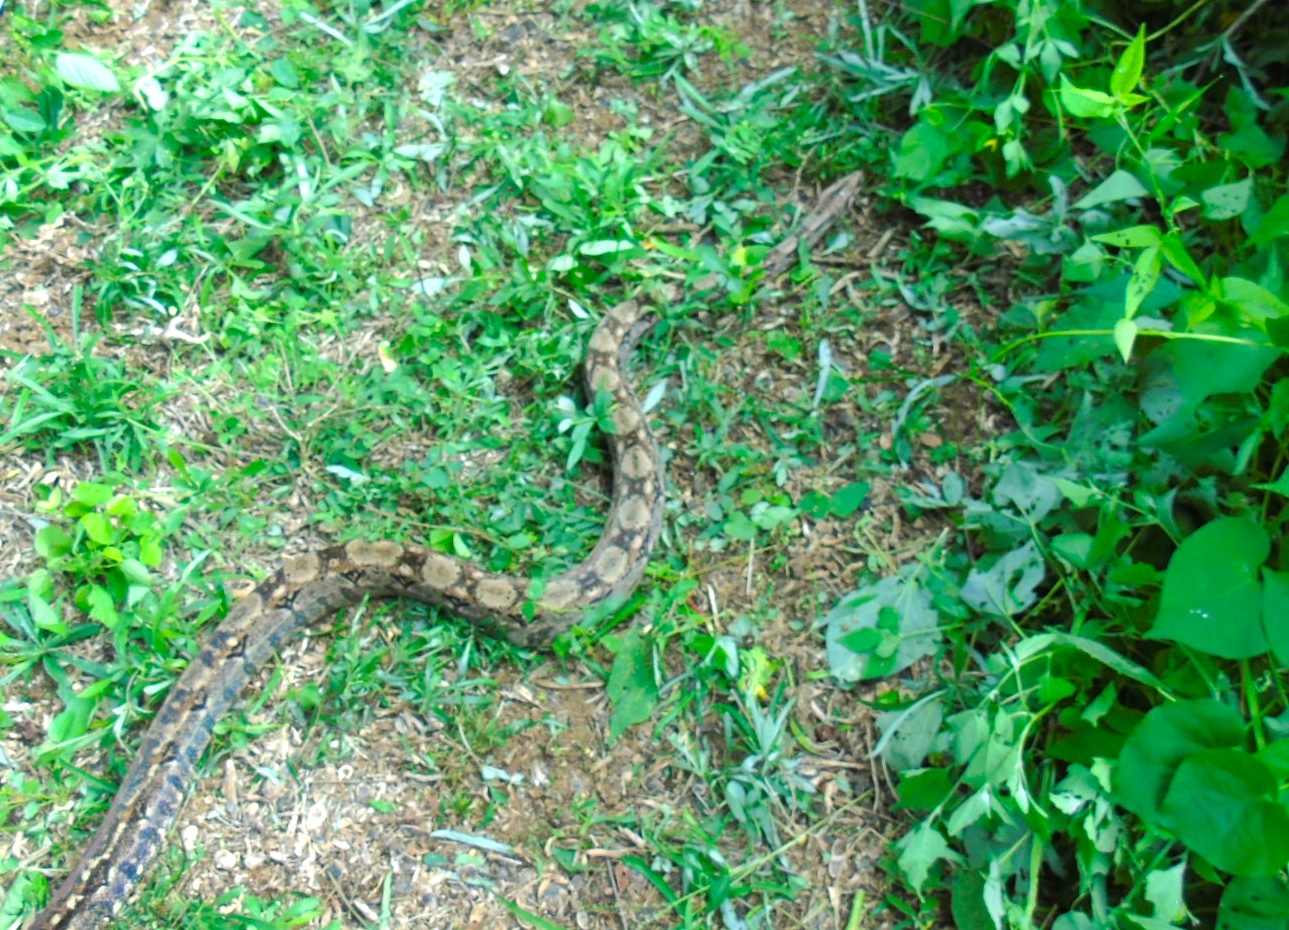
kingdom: Animalia
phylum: Chordata
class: Squamata
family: Boidae
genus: Boa
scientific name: Boa
